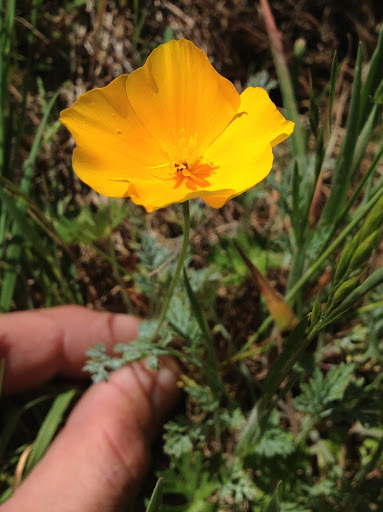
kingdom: Plantae
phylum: Tracheophyta
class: Magnoliopsida
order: Ranunculales
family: Papaveraceae
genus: Eschscholzia
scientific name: Eschscholzia lobbii
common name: Frying-pans
